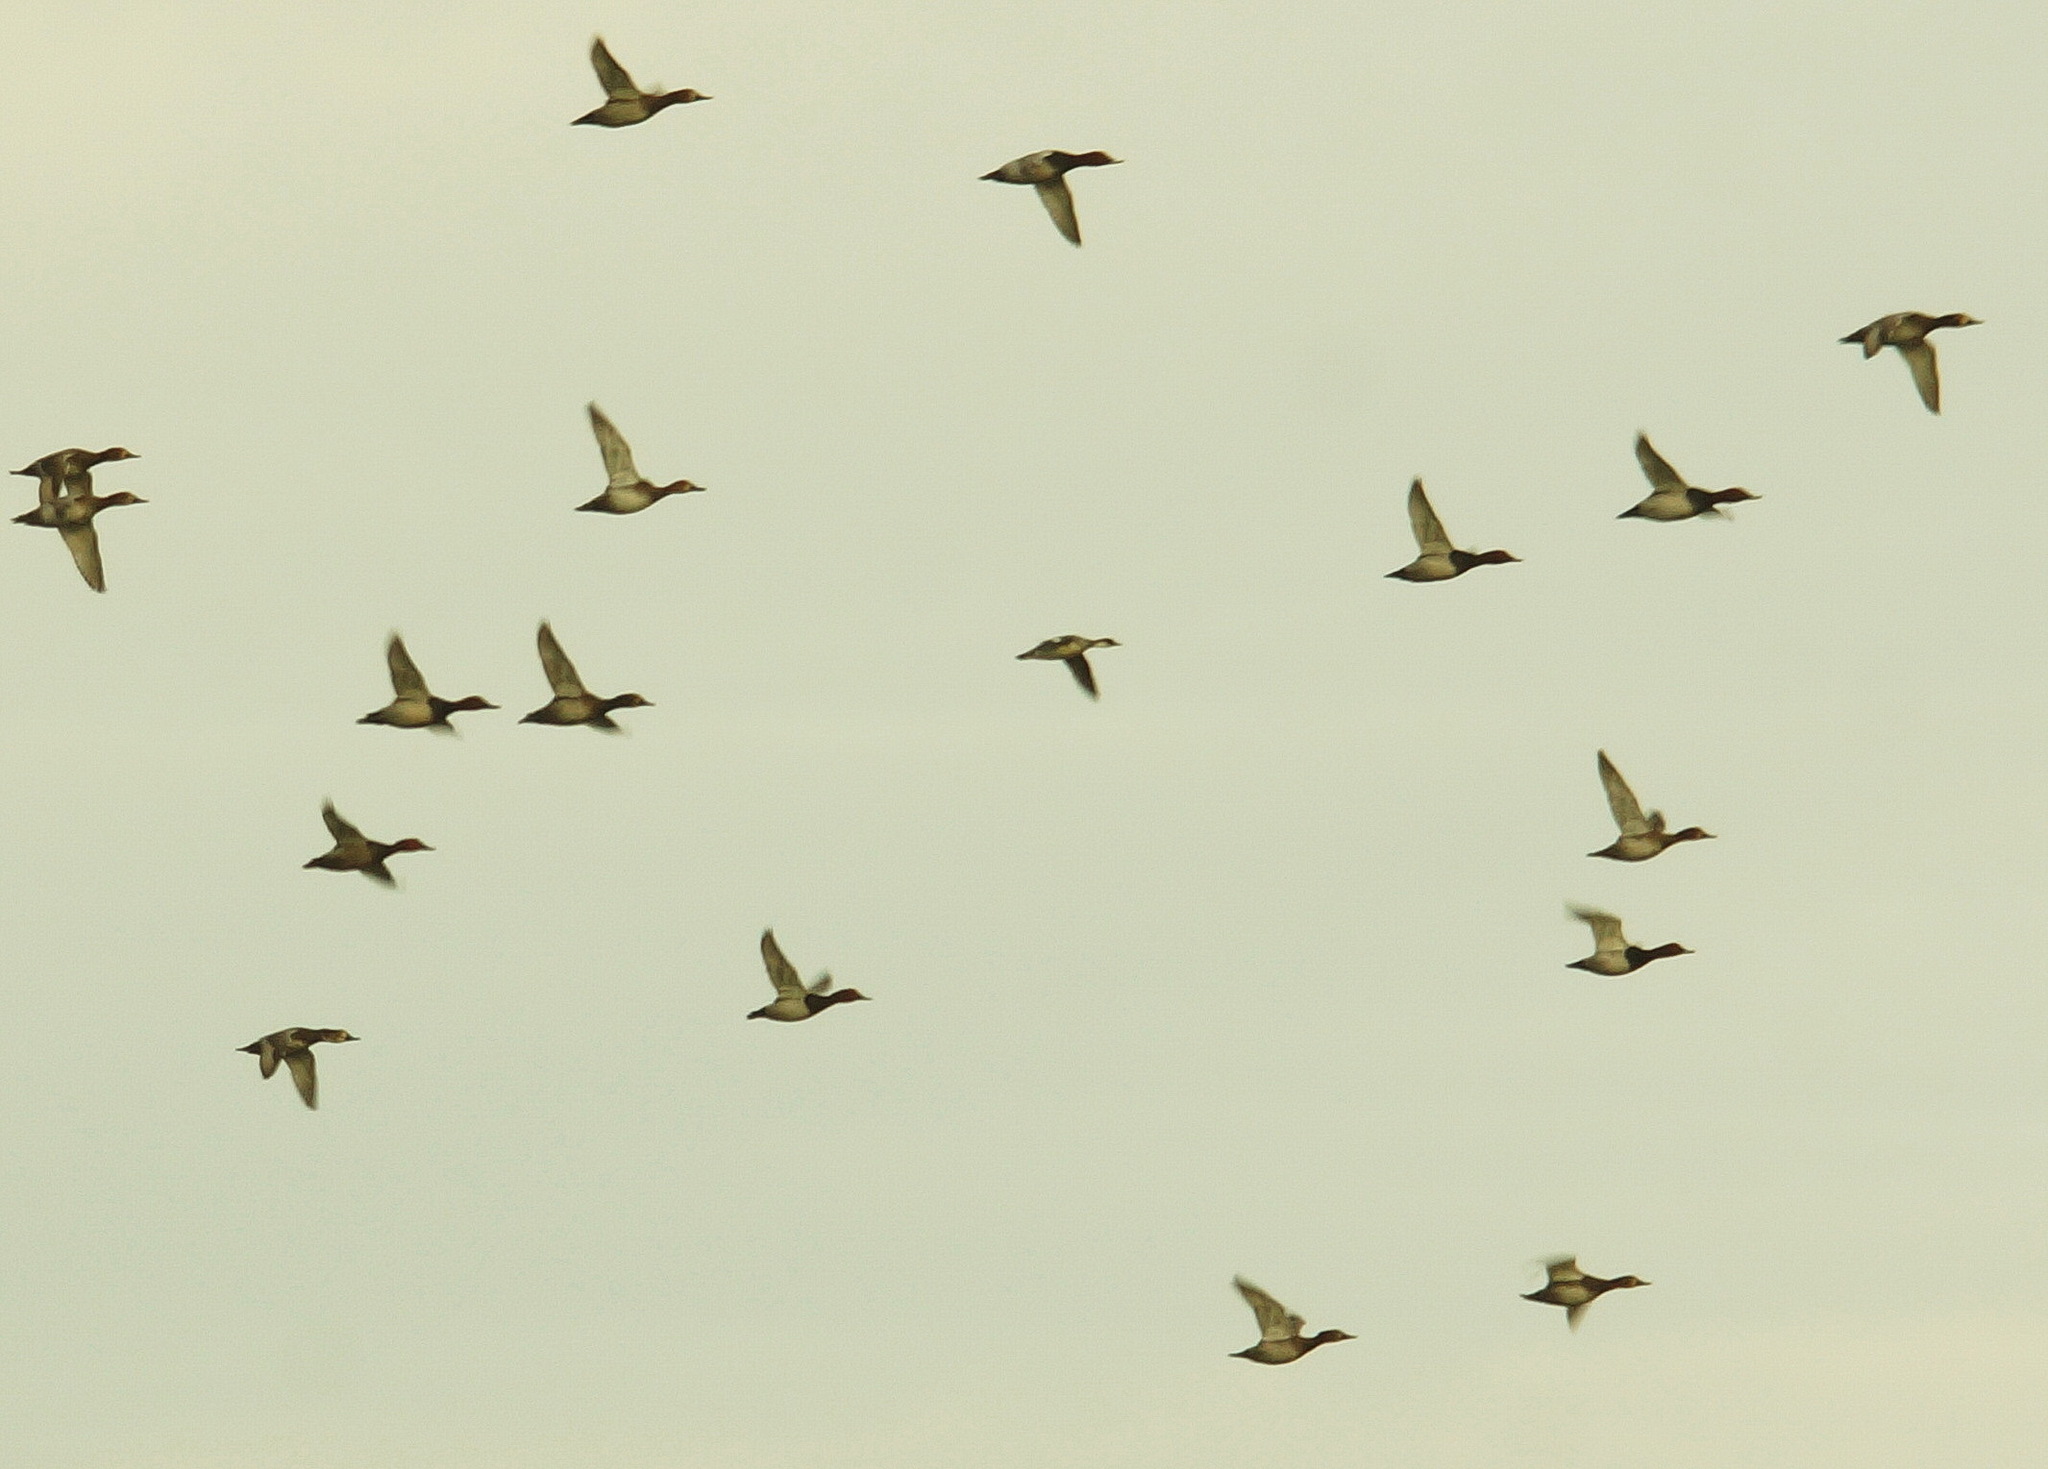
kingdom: Animalia
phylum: Chordata
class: Aves
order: Anseriformes
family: Anatidae
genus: Aythya
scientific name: Aythya ferina
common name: Common pochard
